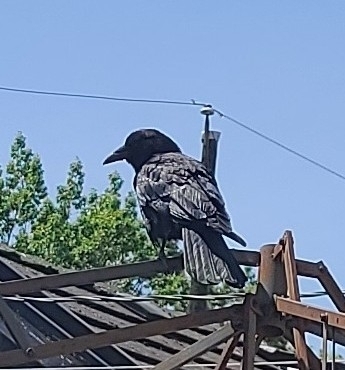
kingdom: Animalia
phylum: Chordata
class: Aves
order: Passeriformes
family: Corvidae
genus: Corvus
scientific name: Corvus brachyrhynchos
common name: American crow
